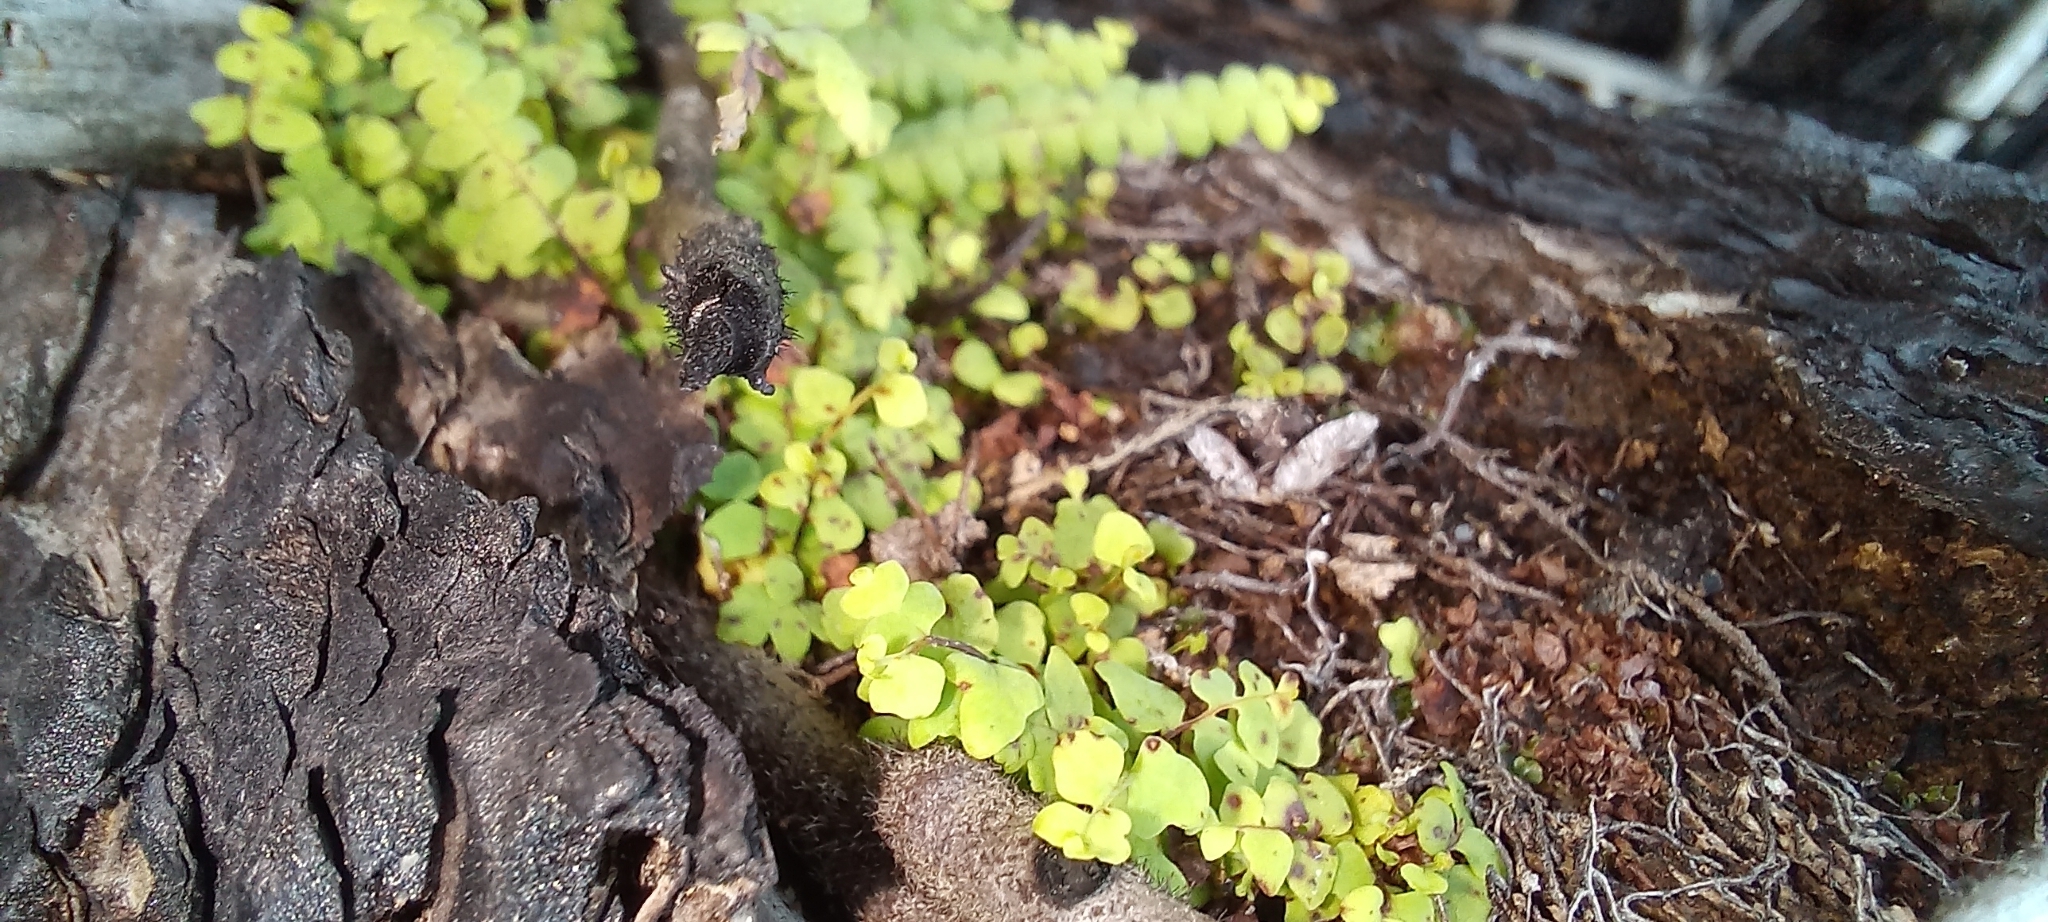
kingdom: Plantae
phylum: Tracheophyta
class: Polypodiopsida
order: Gleicheniales
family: Gleicheniaceae
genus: Gleichenia
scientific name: Gleichenia polypodioides
